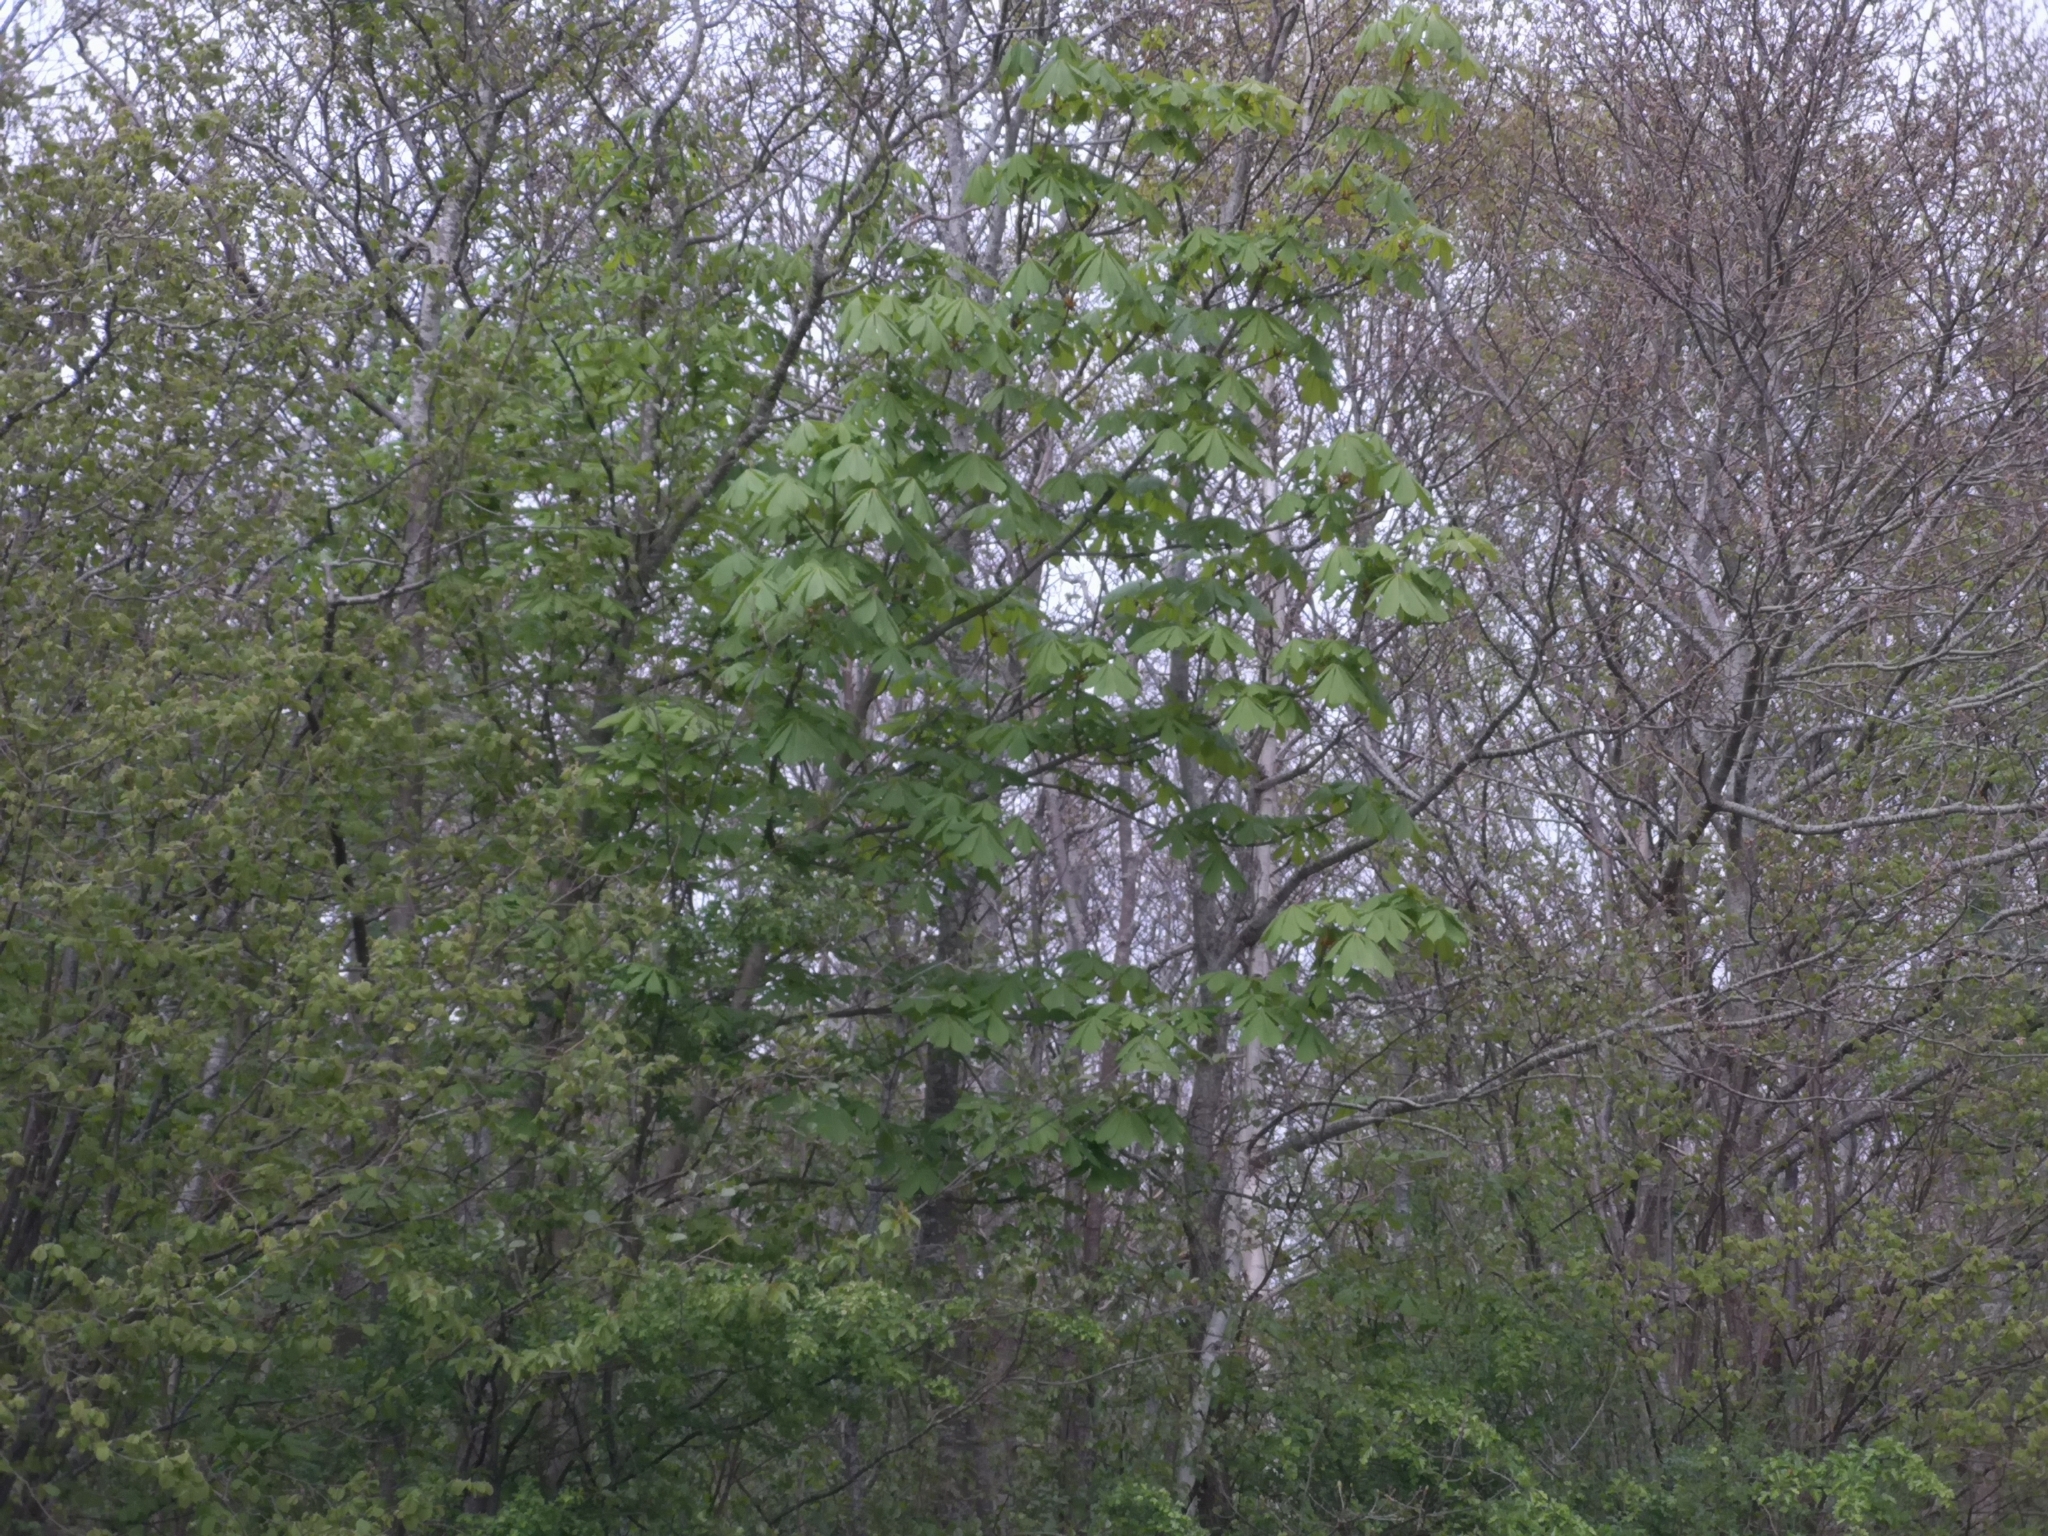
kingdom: Plantae
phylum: Tracheophyta
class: Magnoliopsida
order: Sapindales
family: Sapindaceae
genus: Aesculus
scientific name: Aesculus hippocastanum
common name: Horse-chestnut
